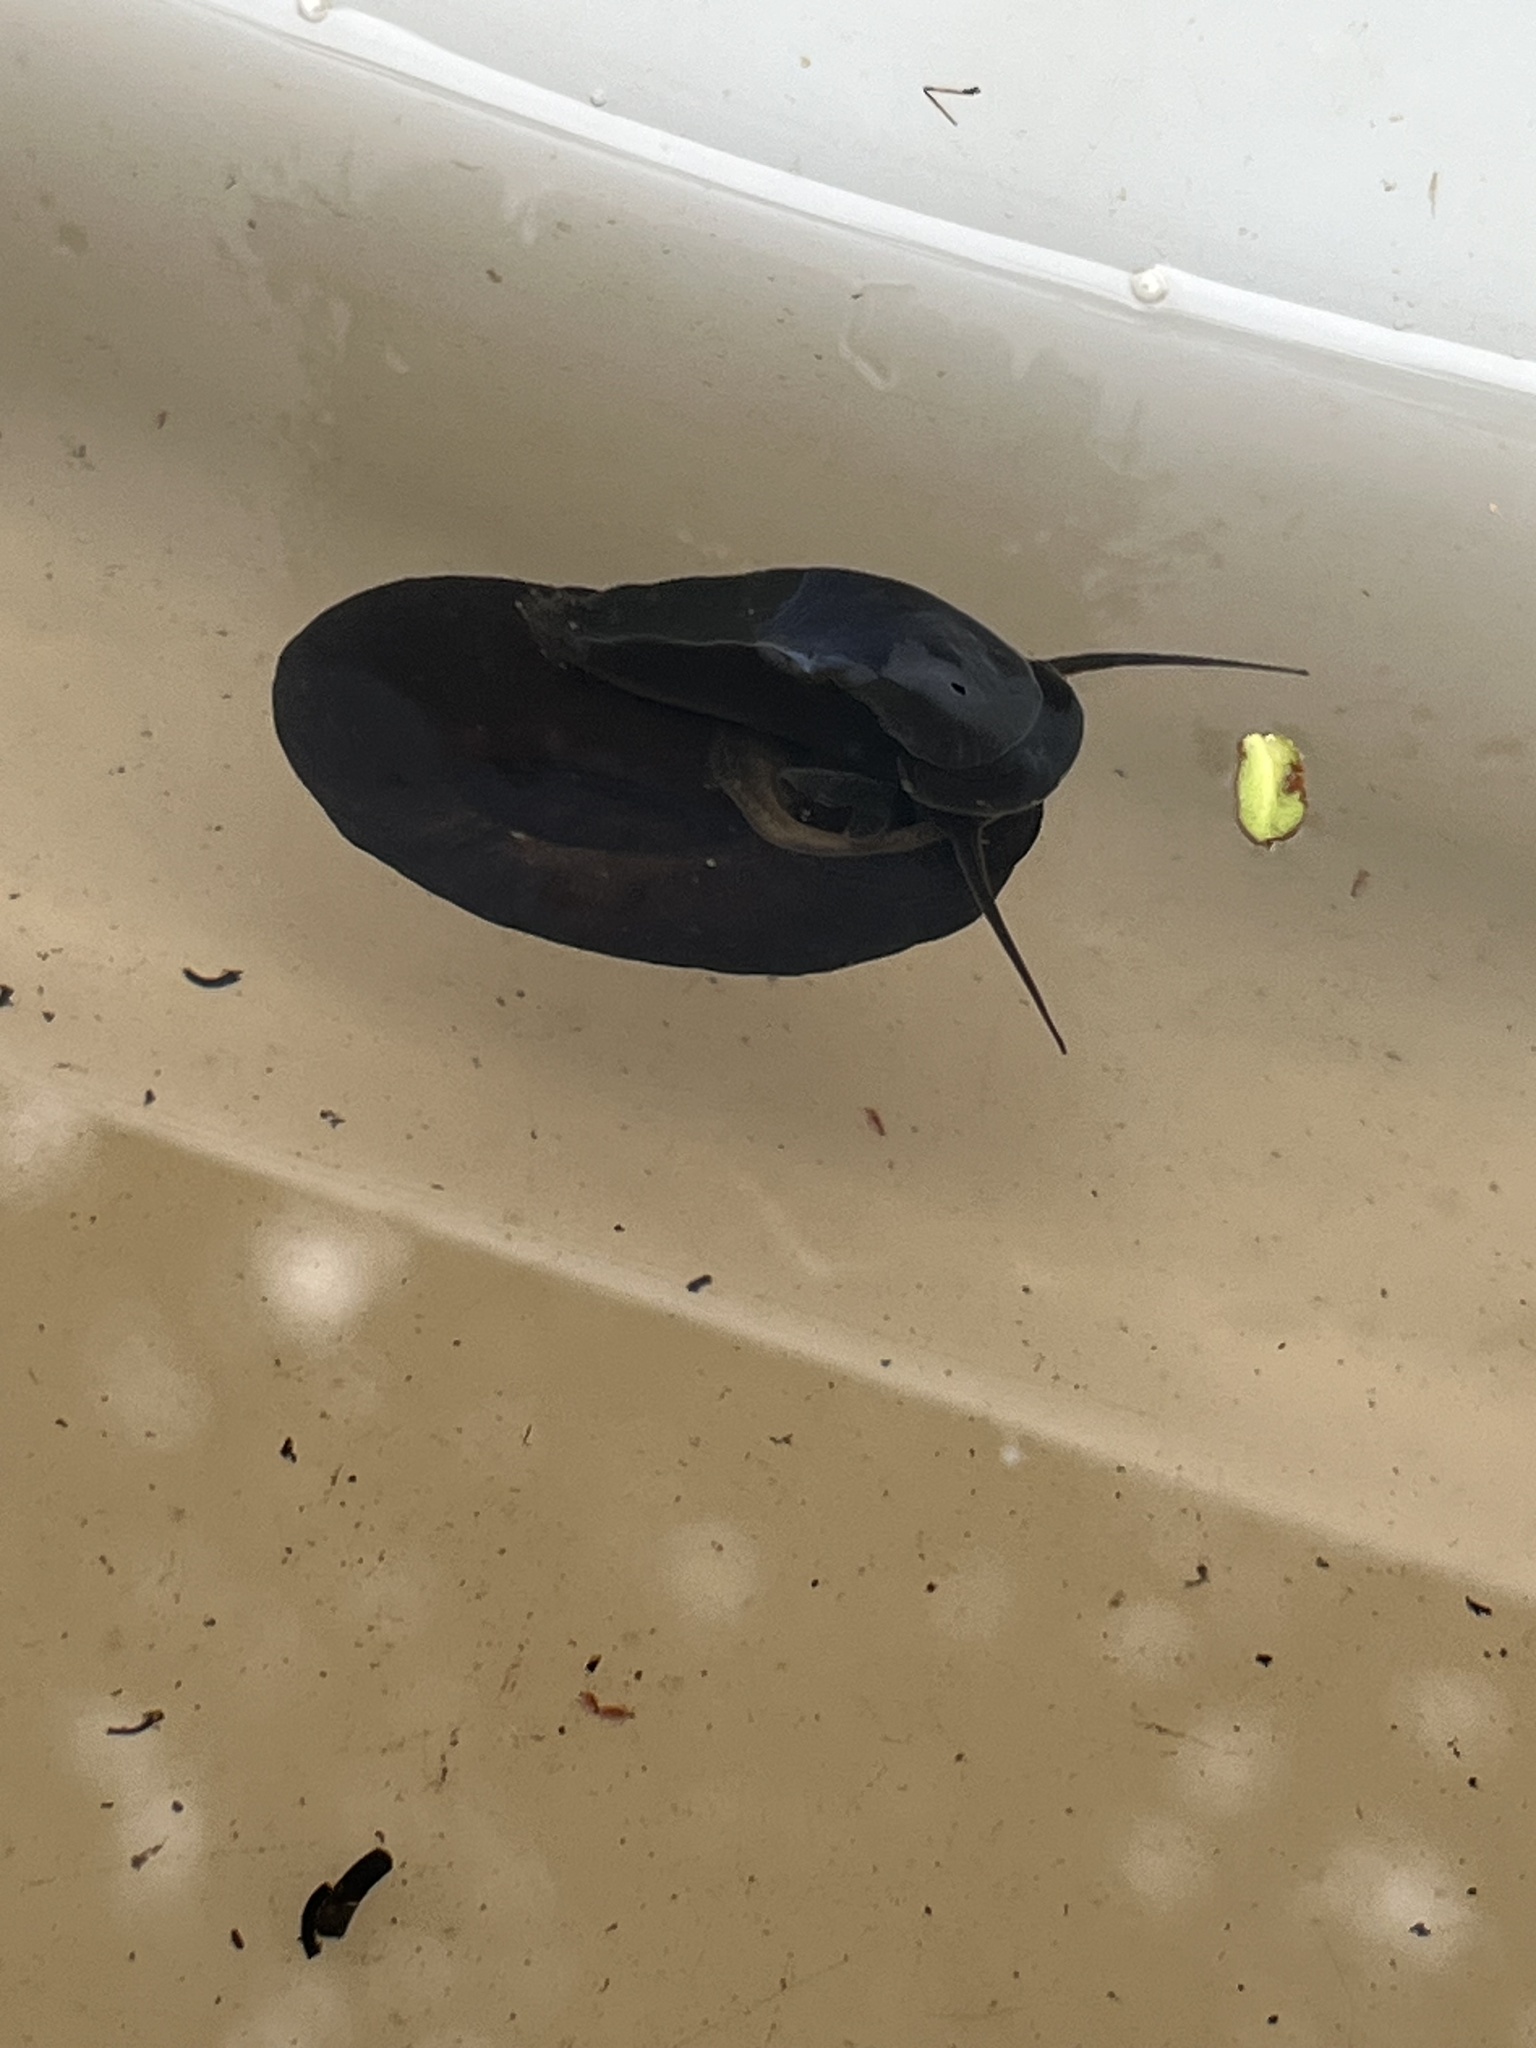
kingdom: Animalia
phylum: Mollusca
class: Gastropoda
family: Planorbidae
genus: Planorbarius
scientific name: Planorbarius corneus
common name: Great ramshorn
